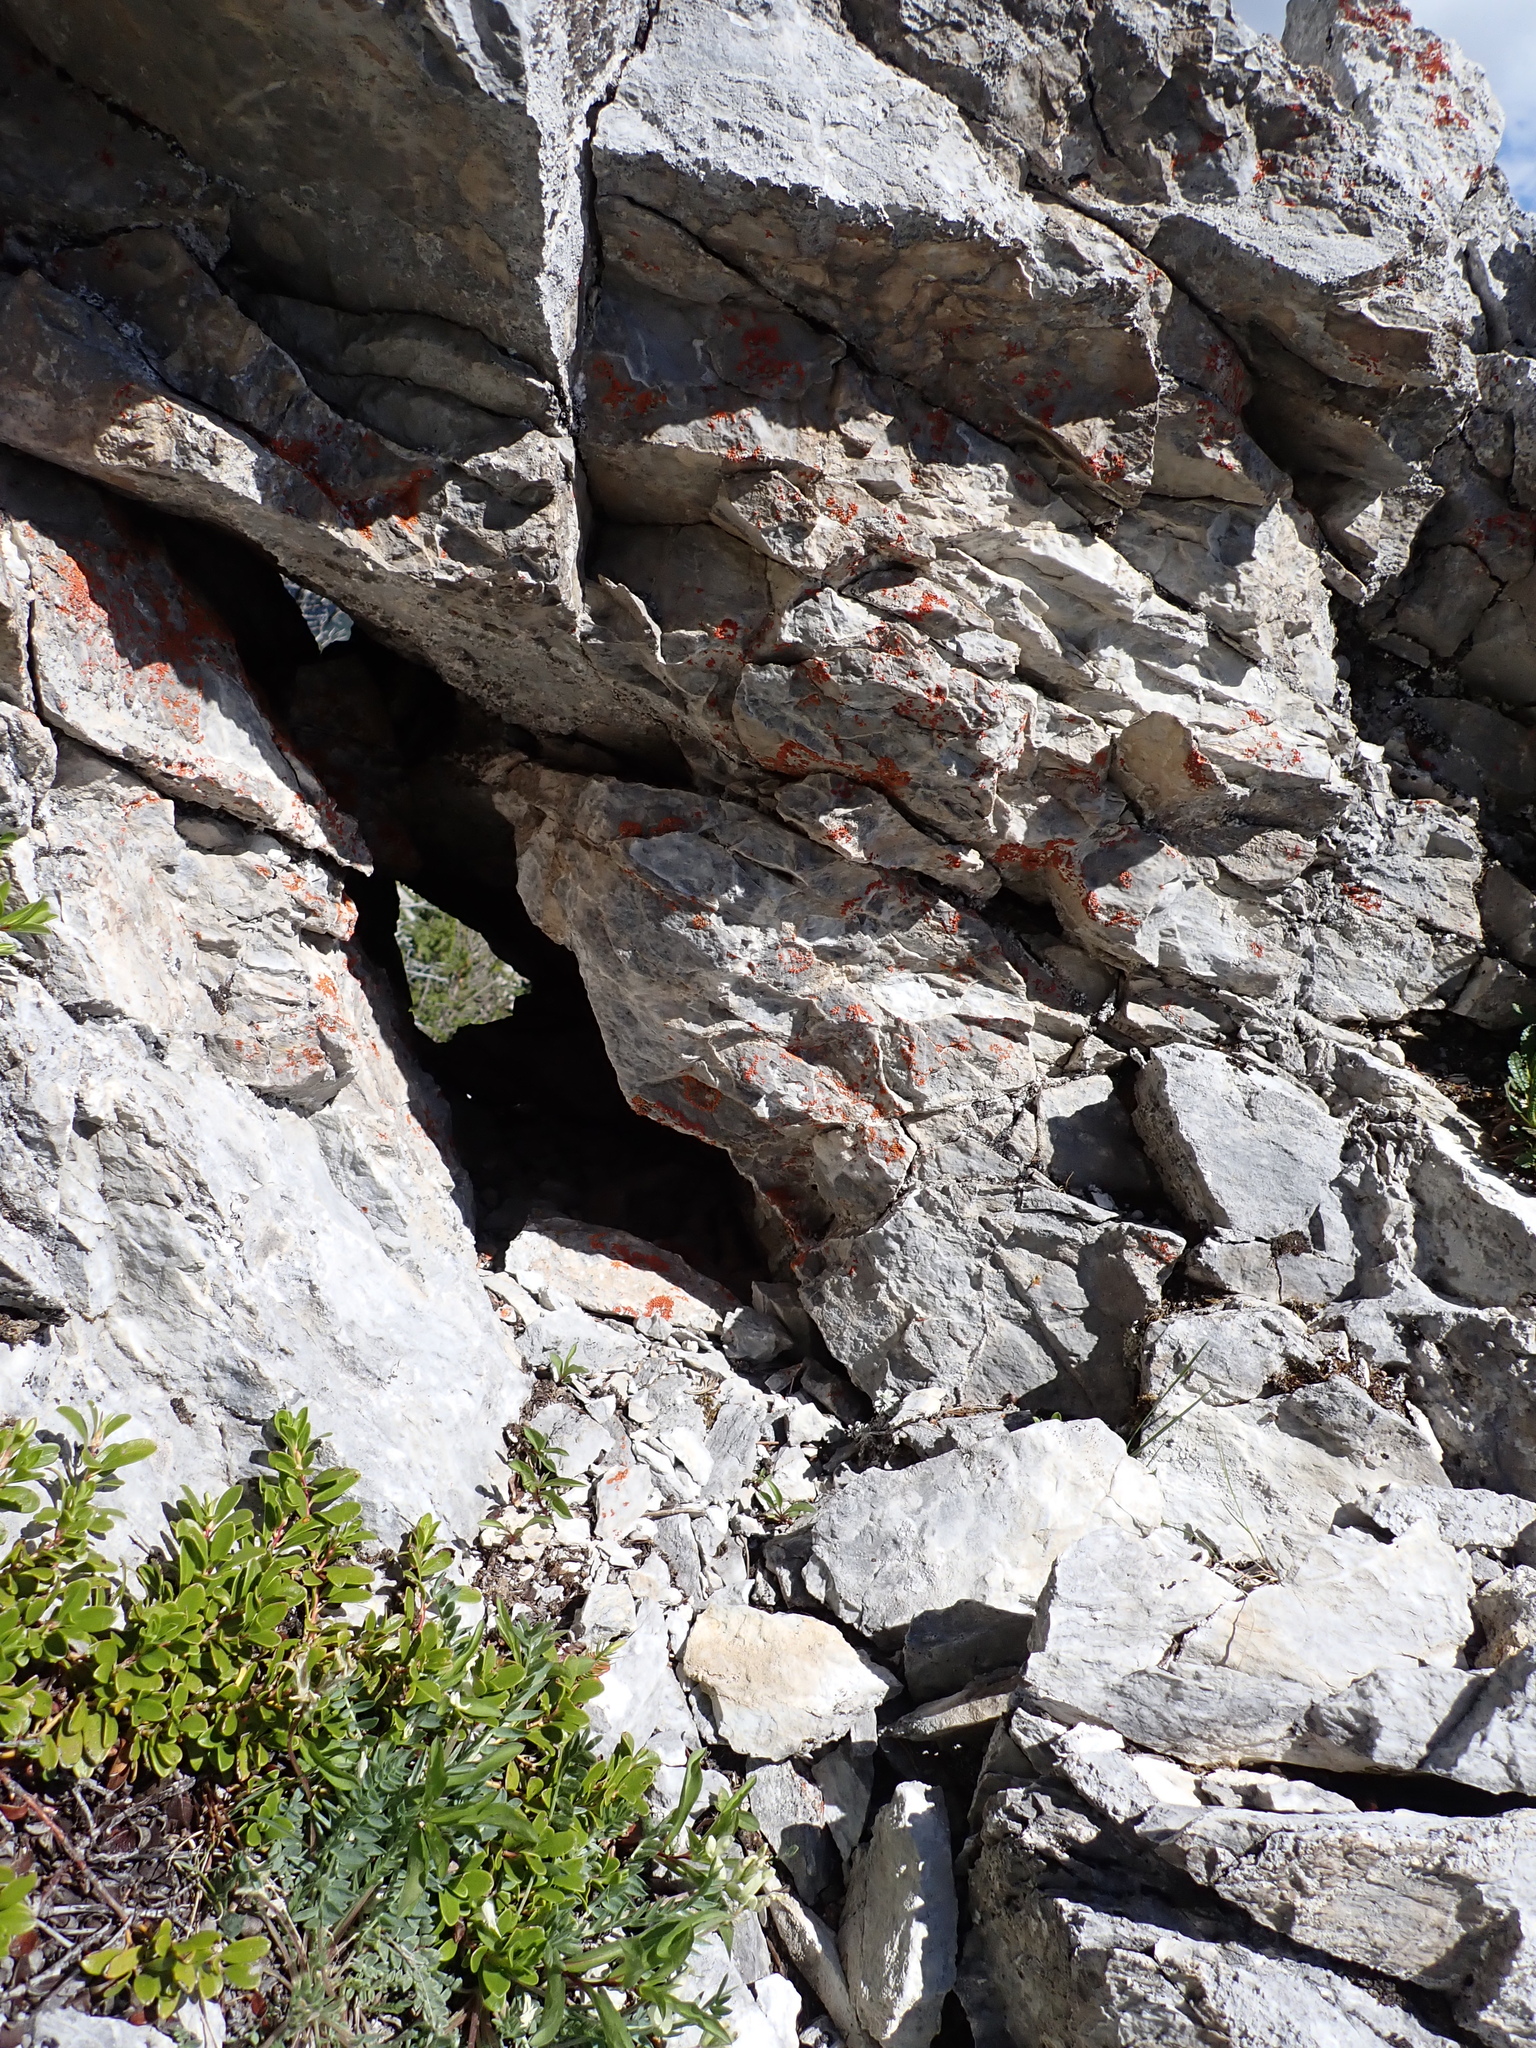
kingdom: Plantae
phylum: Tracheophyta
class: Magnoliopsida
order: Ericales
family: Ericaceae
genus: Arctostaphylos
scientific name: Arctostaphylos uva-ursi
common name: Bearberry
